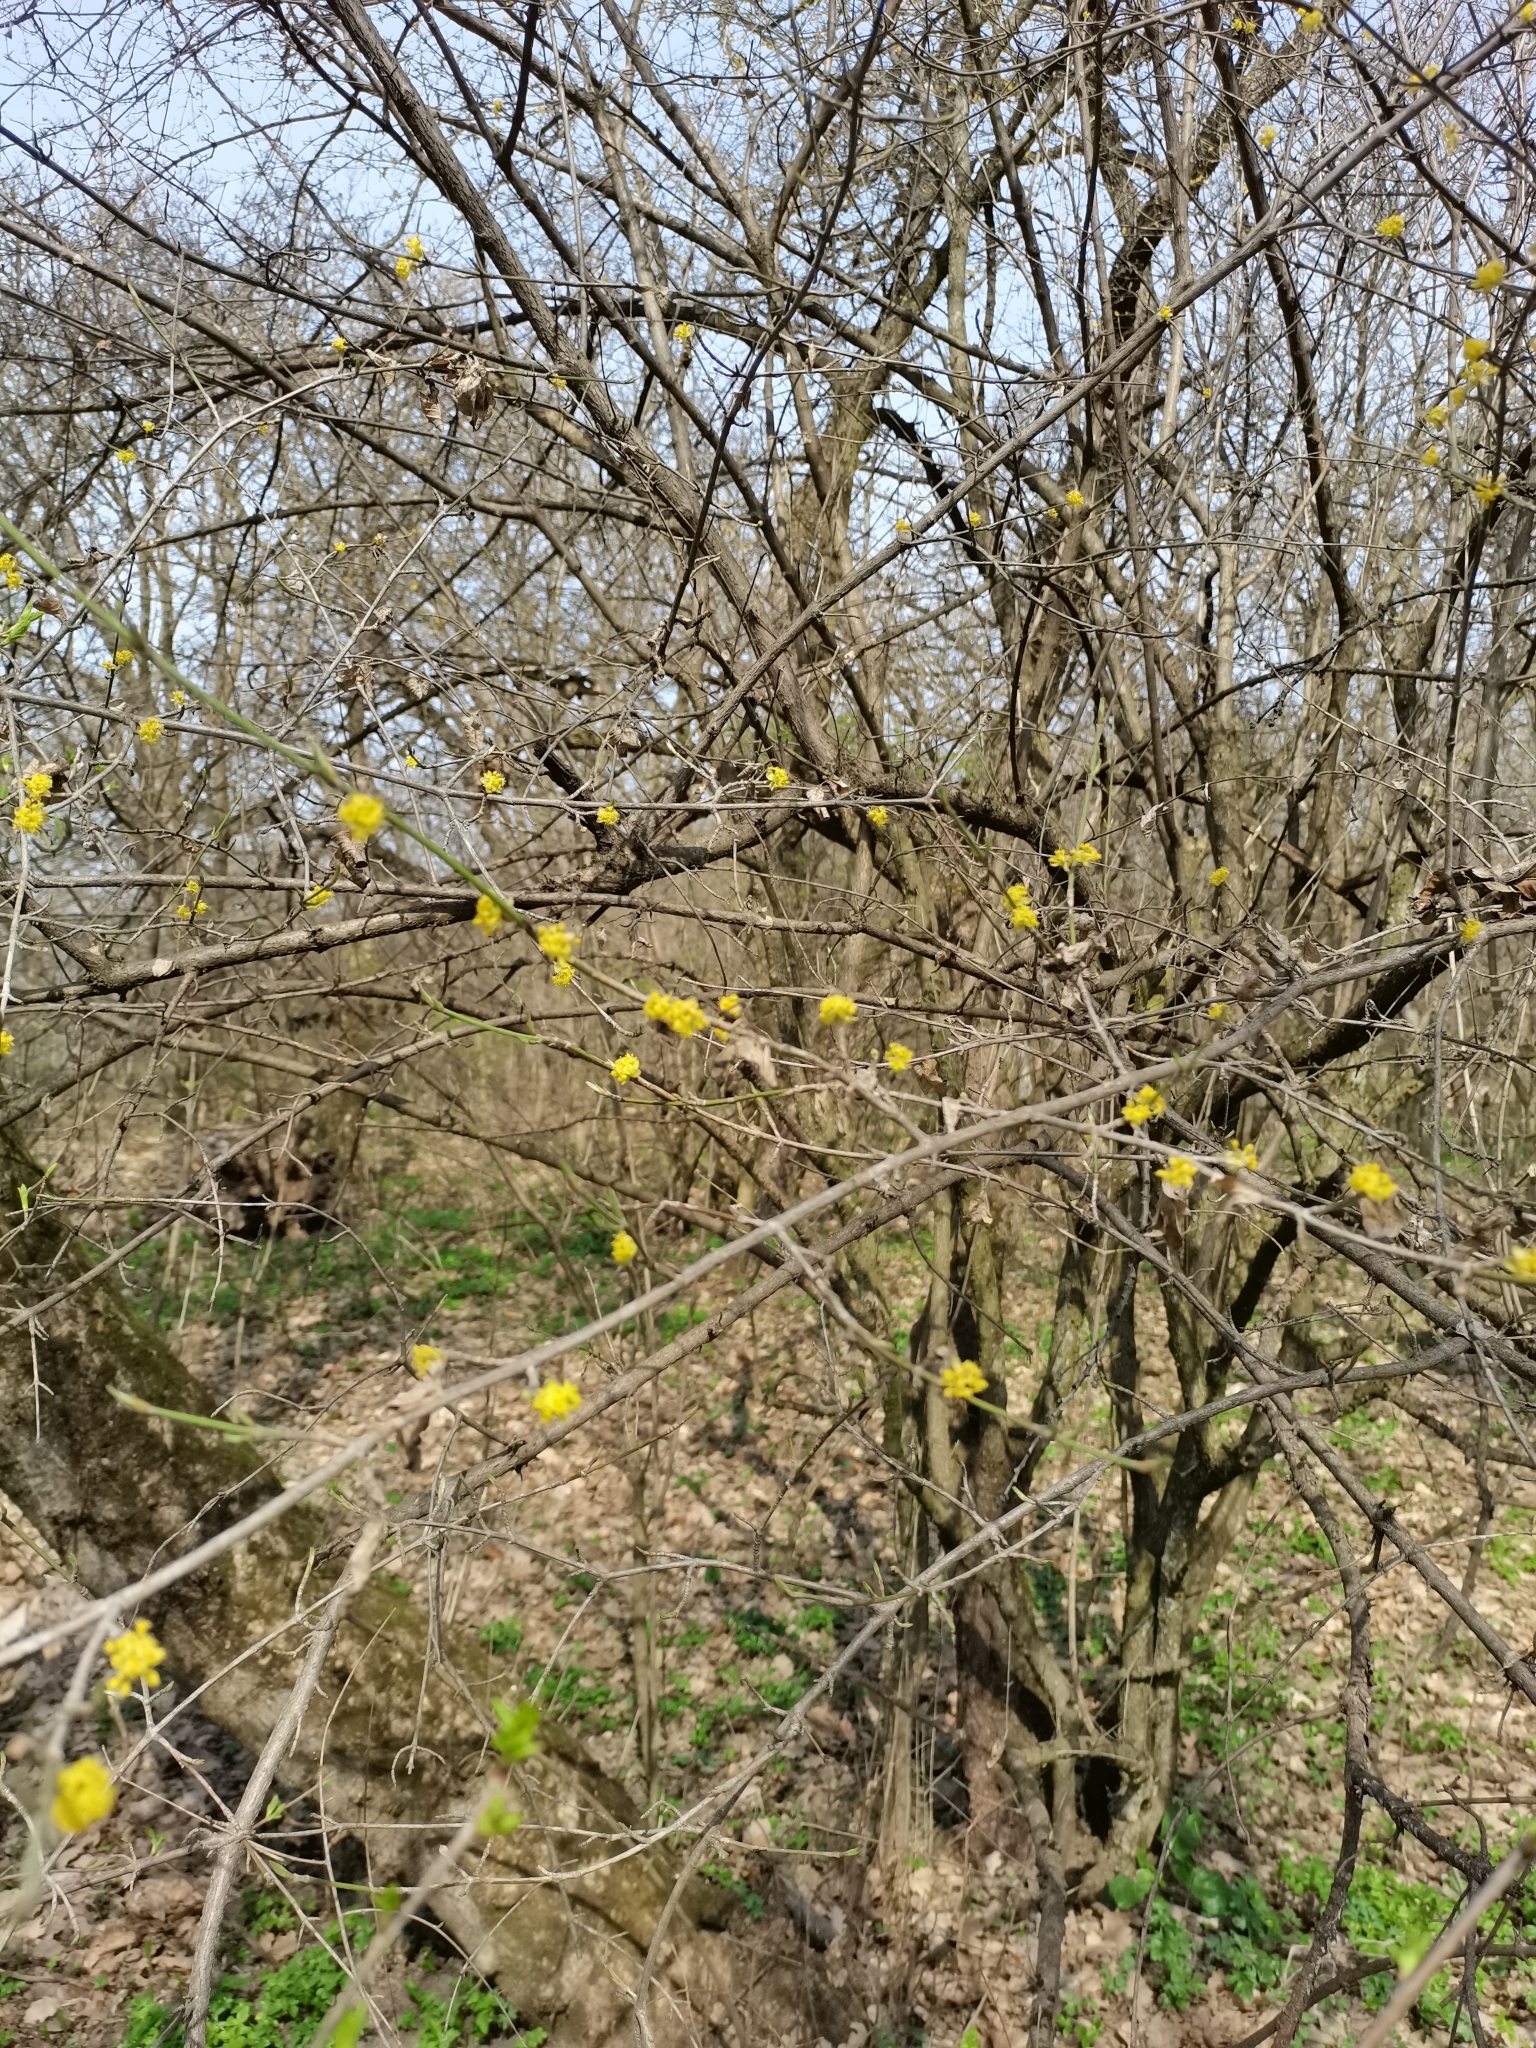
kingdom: Plantae
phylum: Tracheophyta
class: Magnoliopsida
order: Cornales
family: Cornaceae
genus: Cornus
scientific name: Cornus mas
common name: Cornelian-cherry
